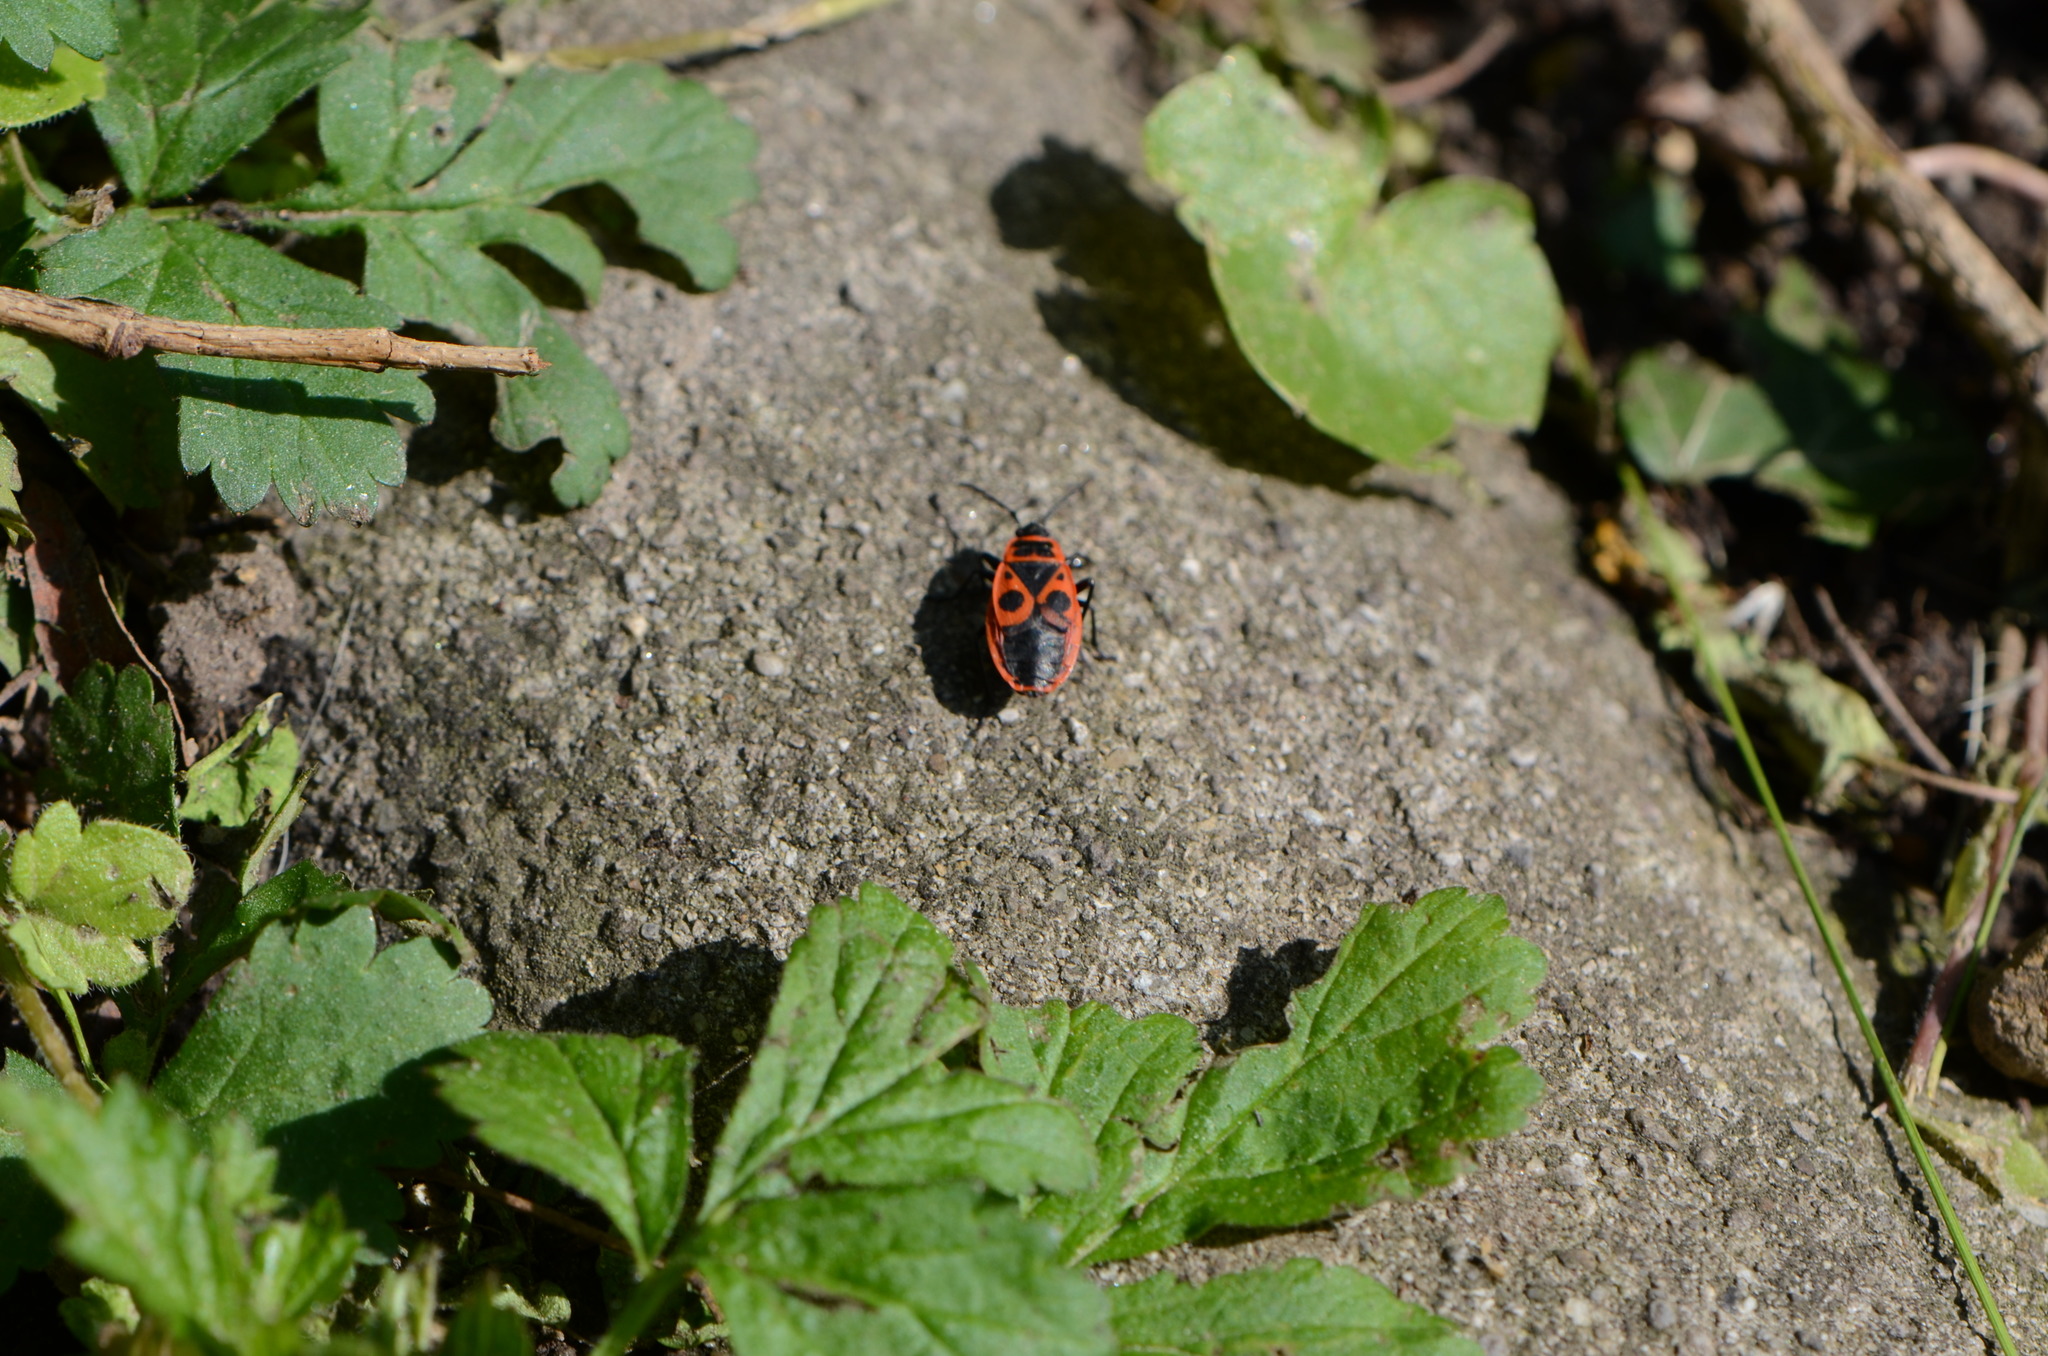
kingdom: Animalia
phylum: Arthropoda
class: Insecta
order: Hemiptera
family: Pyrrhocoridae
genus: Pyrrhocoris
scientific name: Pyrrhocoris apterus
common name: Firebug
